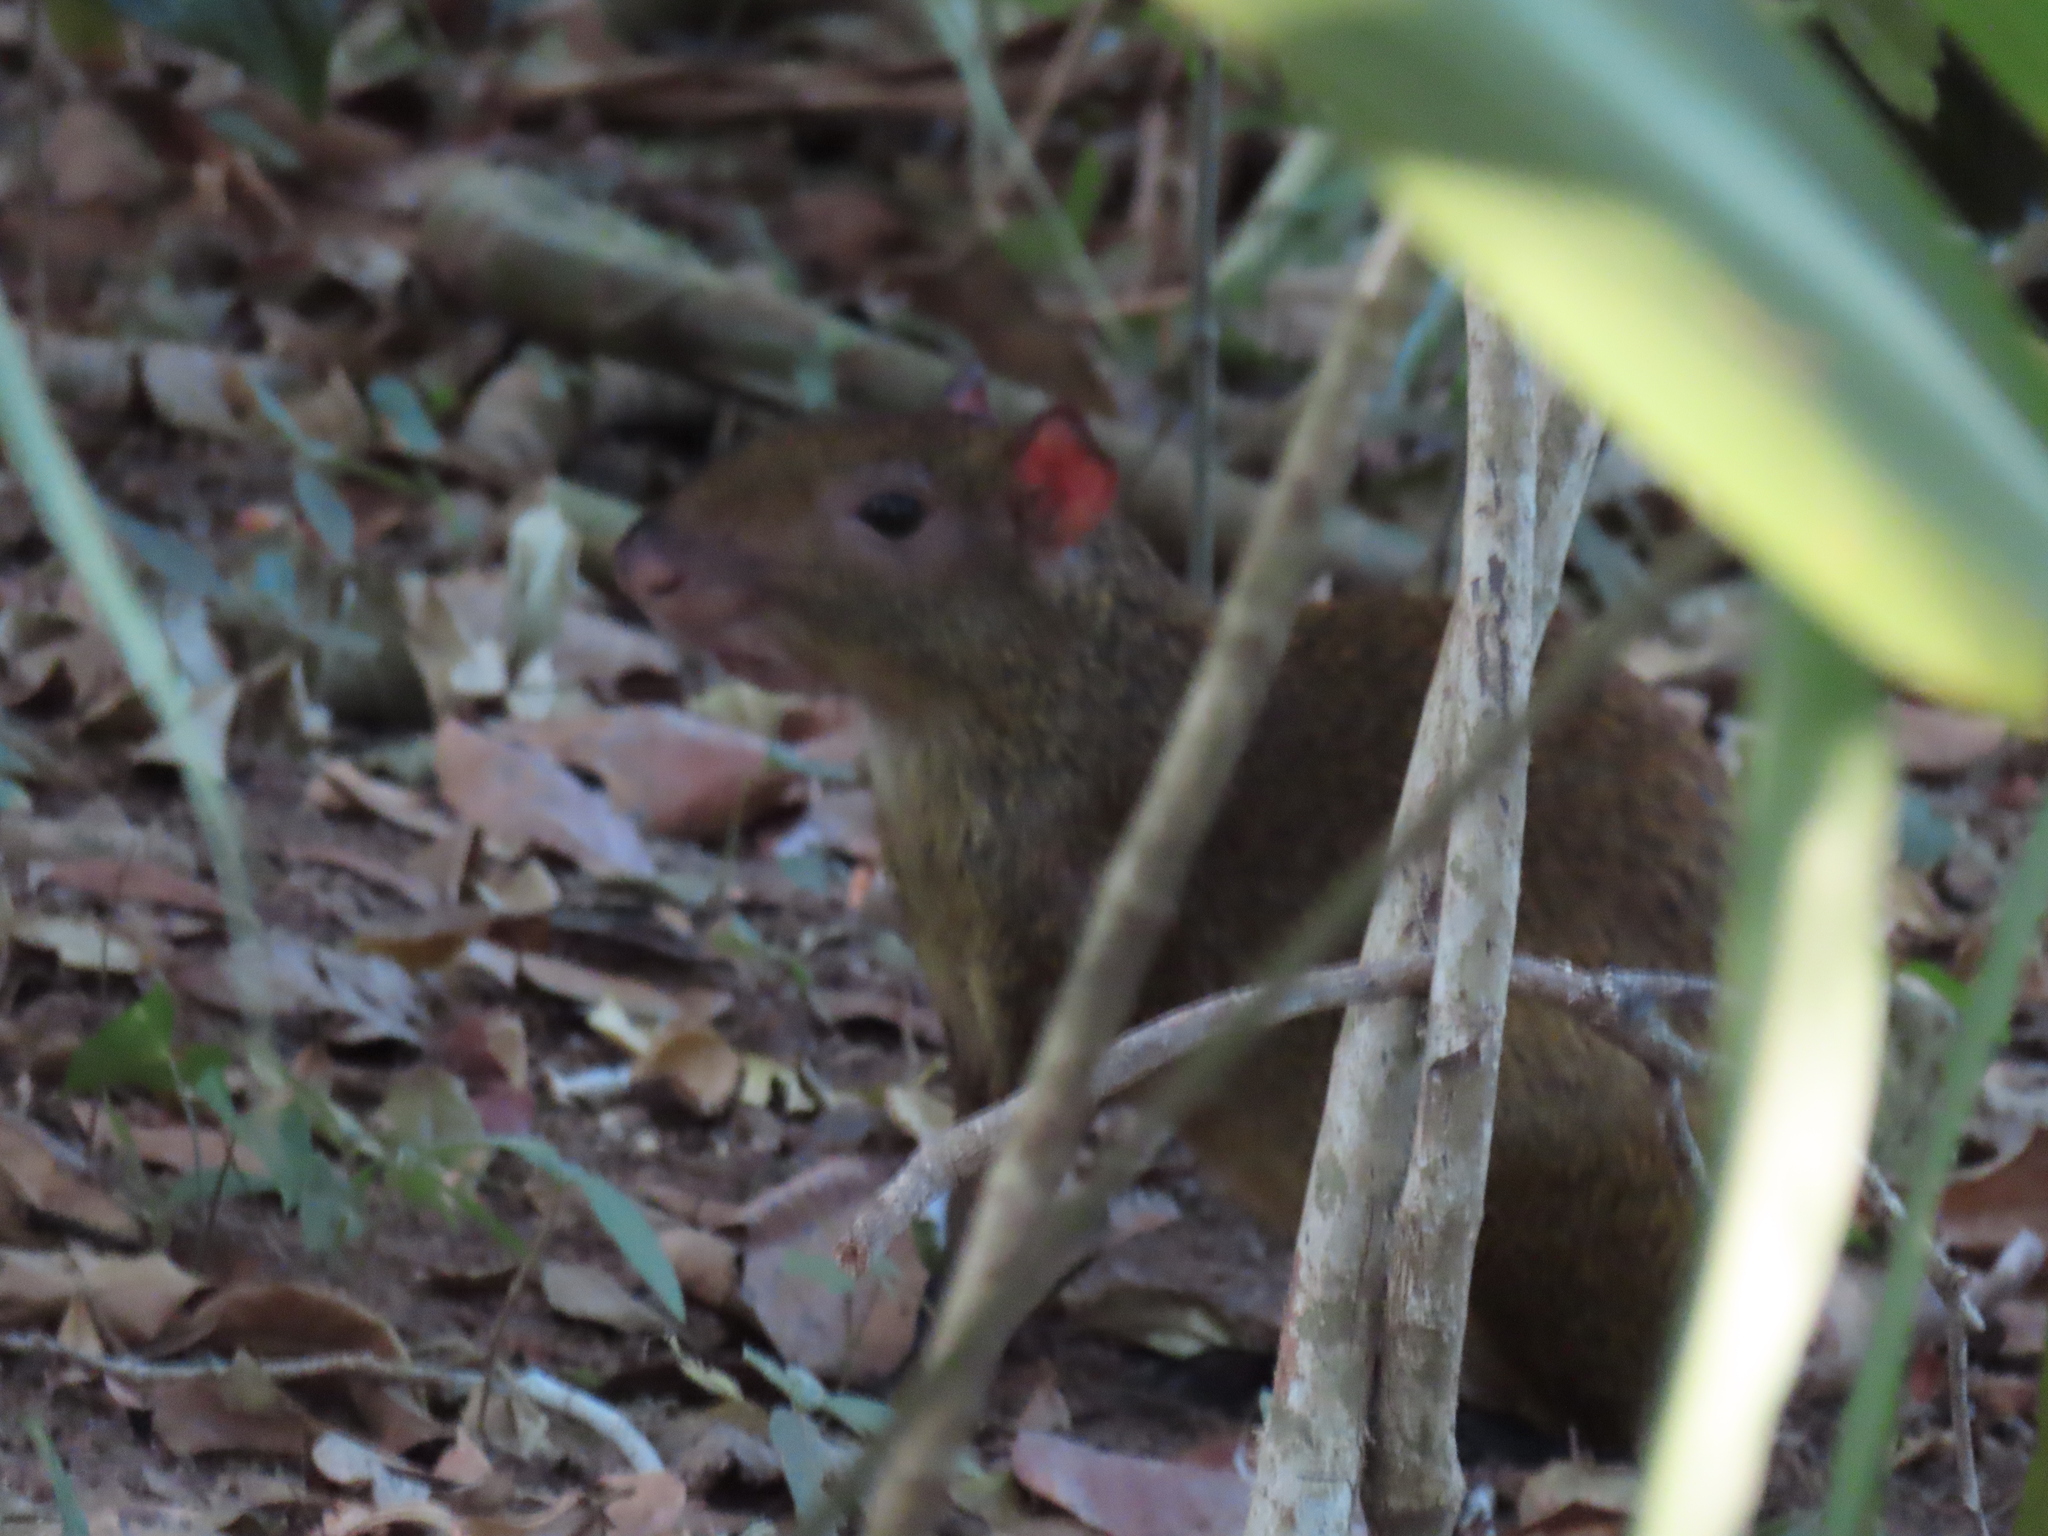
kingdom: Animalia
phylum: Chordata
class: Mammalia
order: Rodentia
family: Dasyproctidae
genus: Dasyprocta
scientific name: Dasyprocta punctata
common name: Central american agouti
